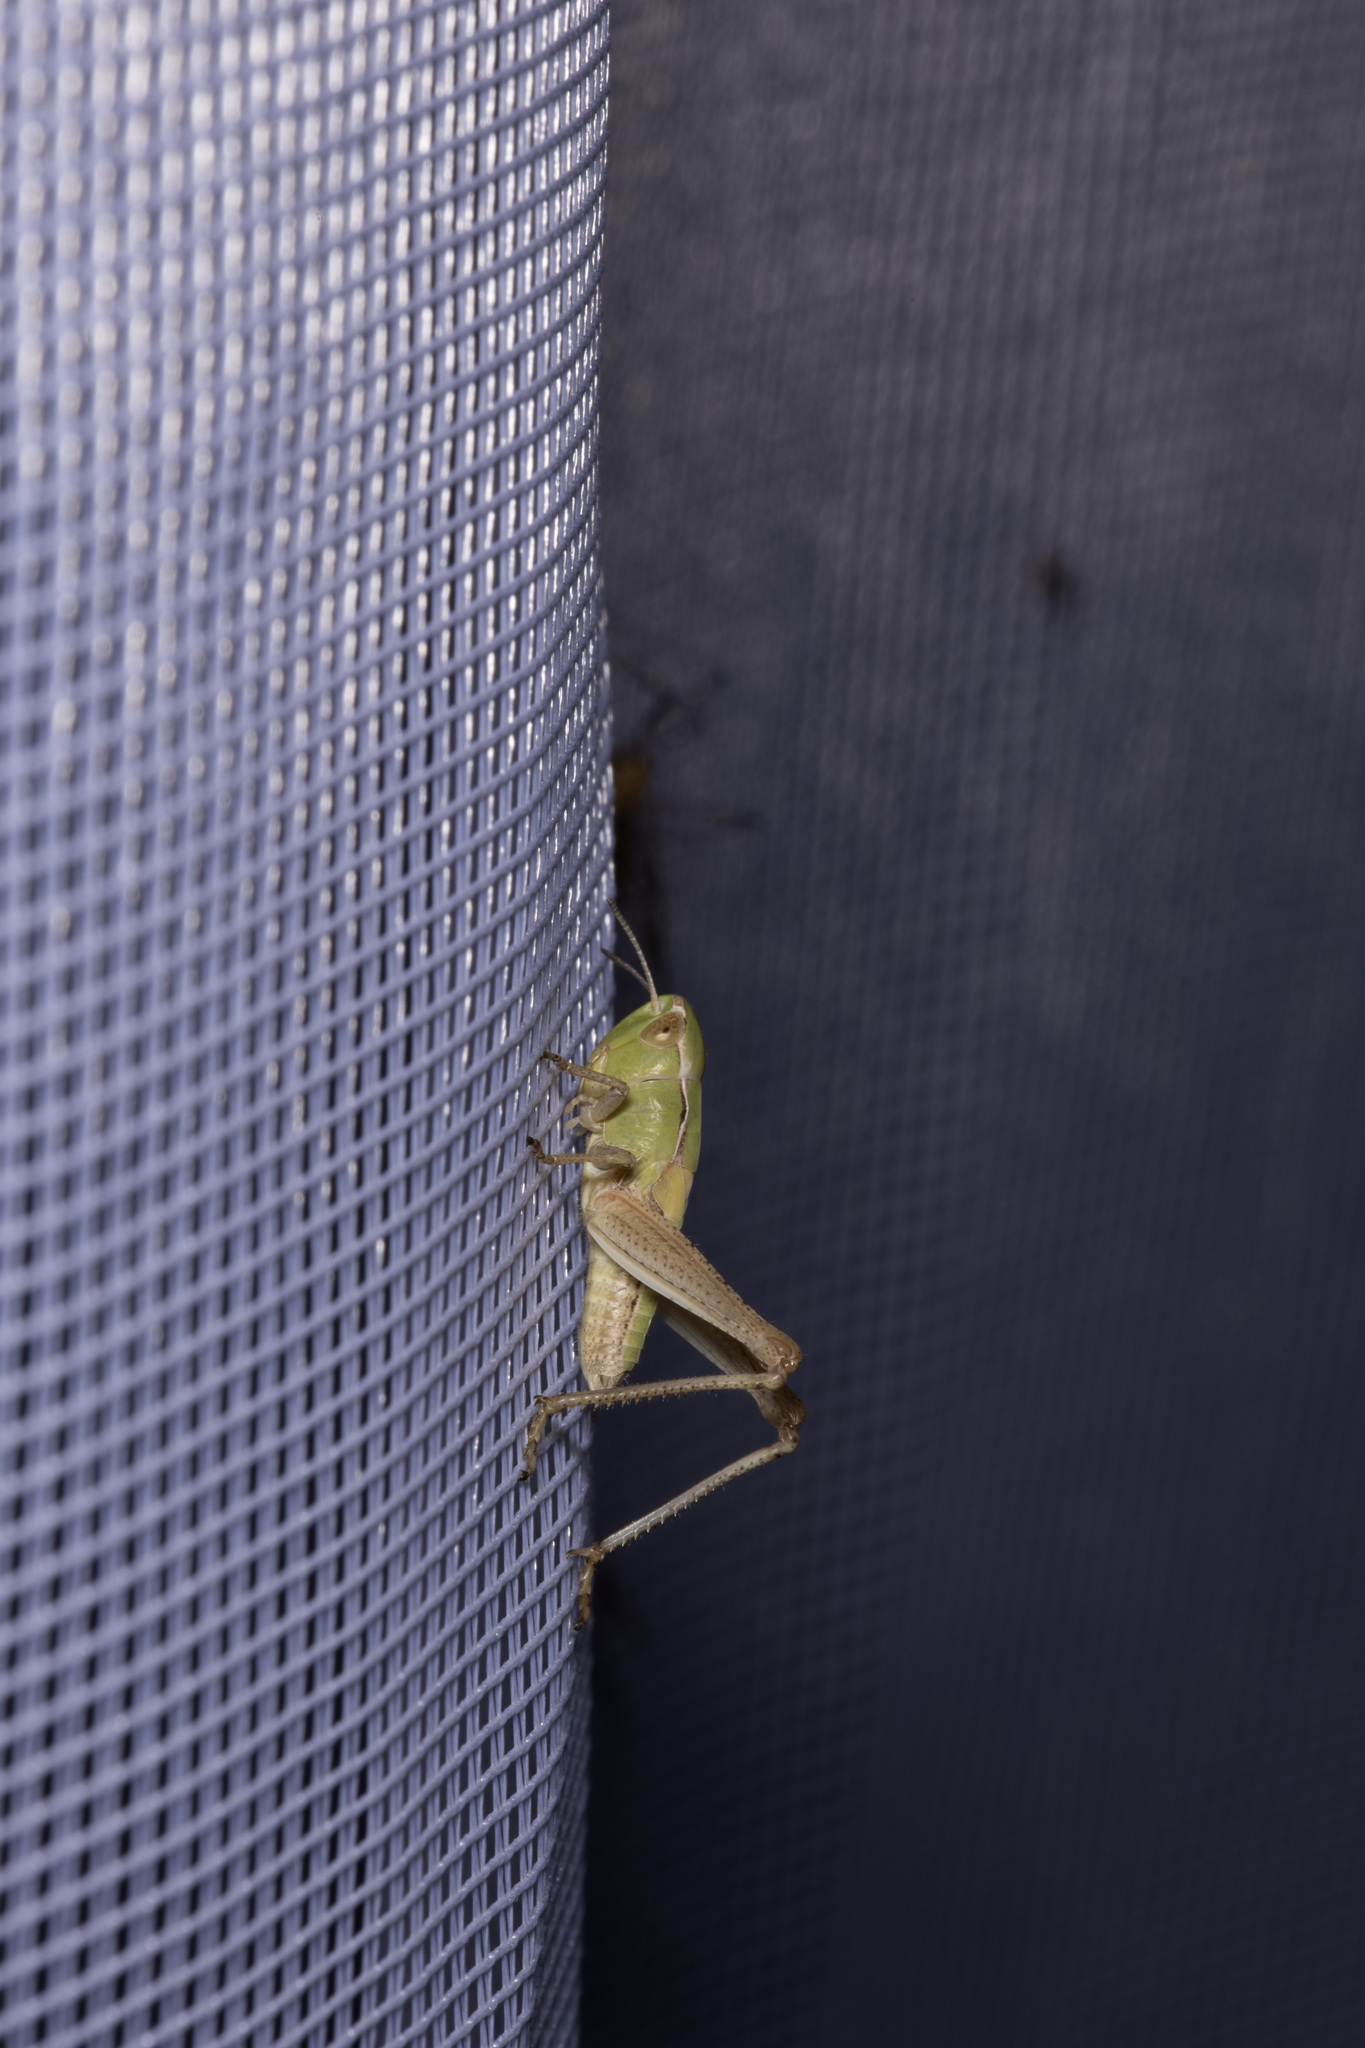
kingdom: Animalia
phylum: Arthropoda
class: Insecta
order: Orthoptera
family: Acrididae
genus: Stenobothrus
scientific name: Stenobothrus lineatus
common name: Stripe-winged grasshopper
